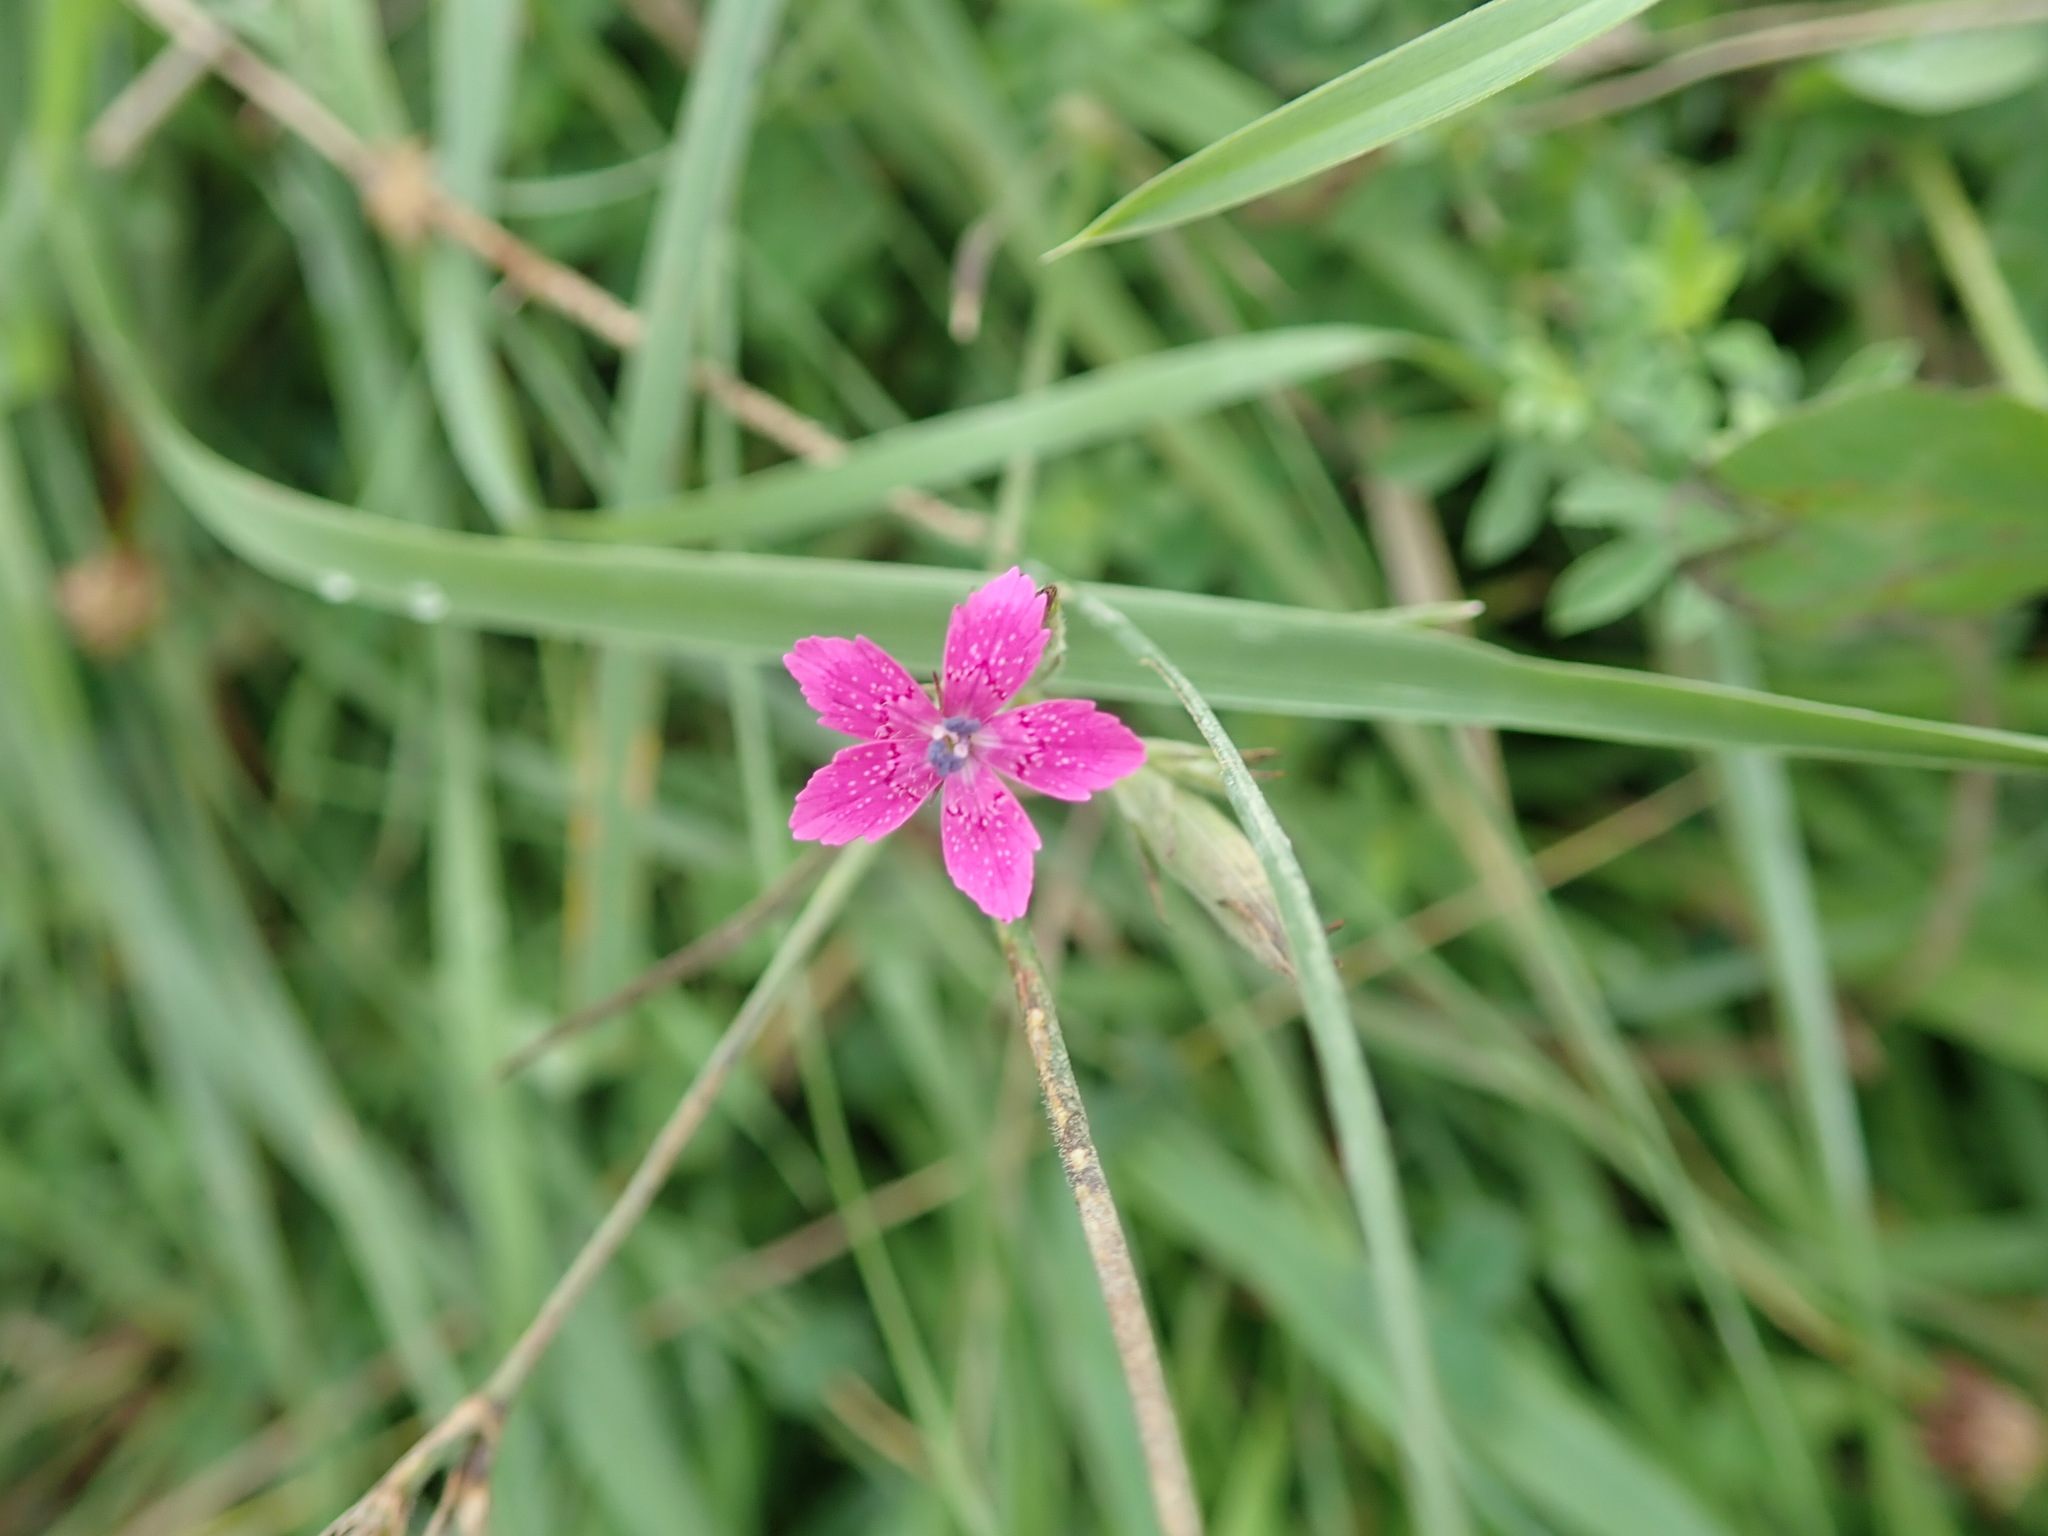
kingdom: Plantae
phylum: Tracheophyta
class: Magnoliopsida
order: Caryophyllales
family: Caryophyllaceae
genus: Dianthus
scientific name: Dianthus armeria
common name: Deptford pink
